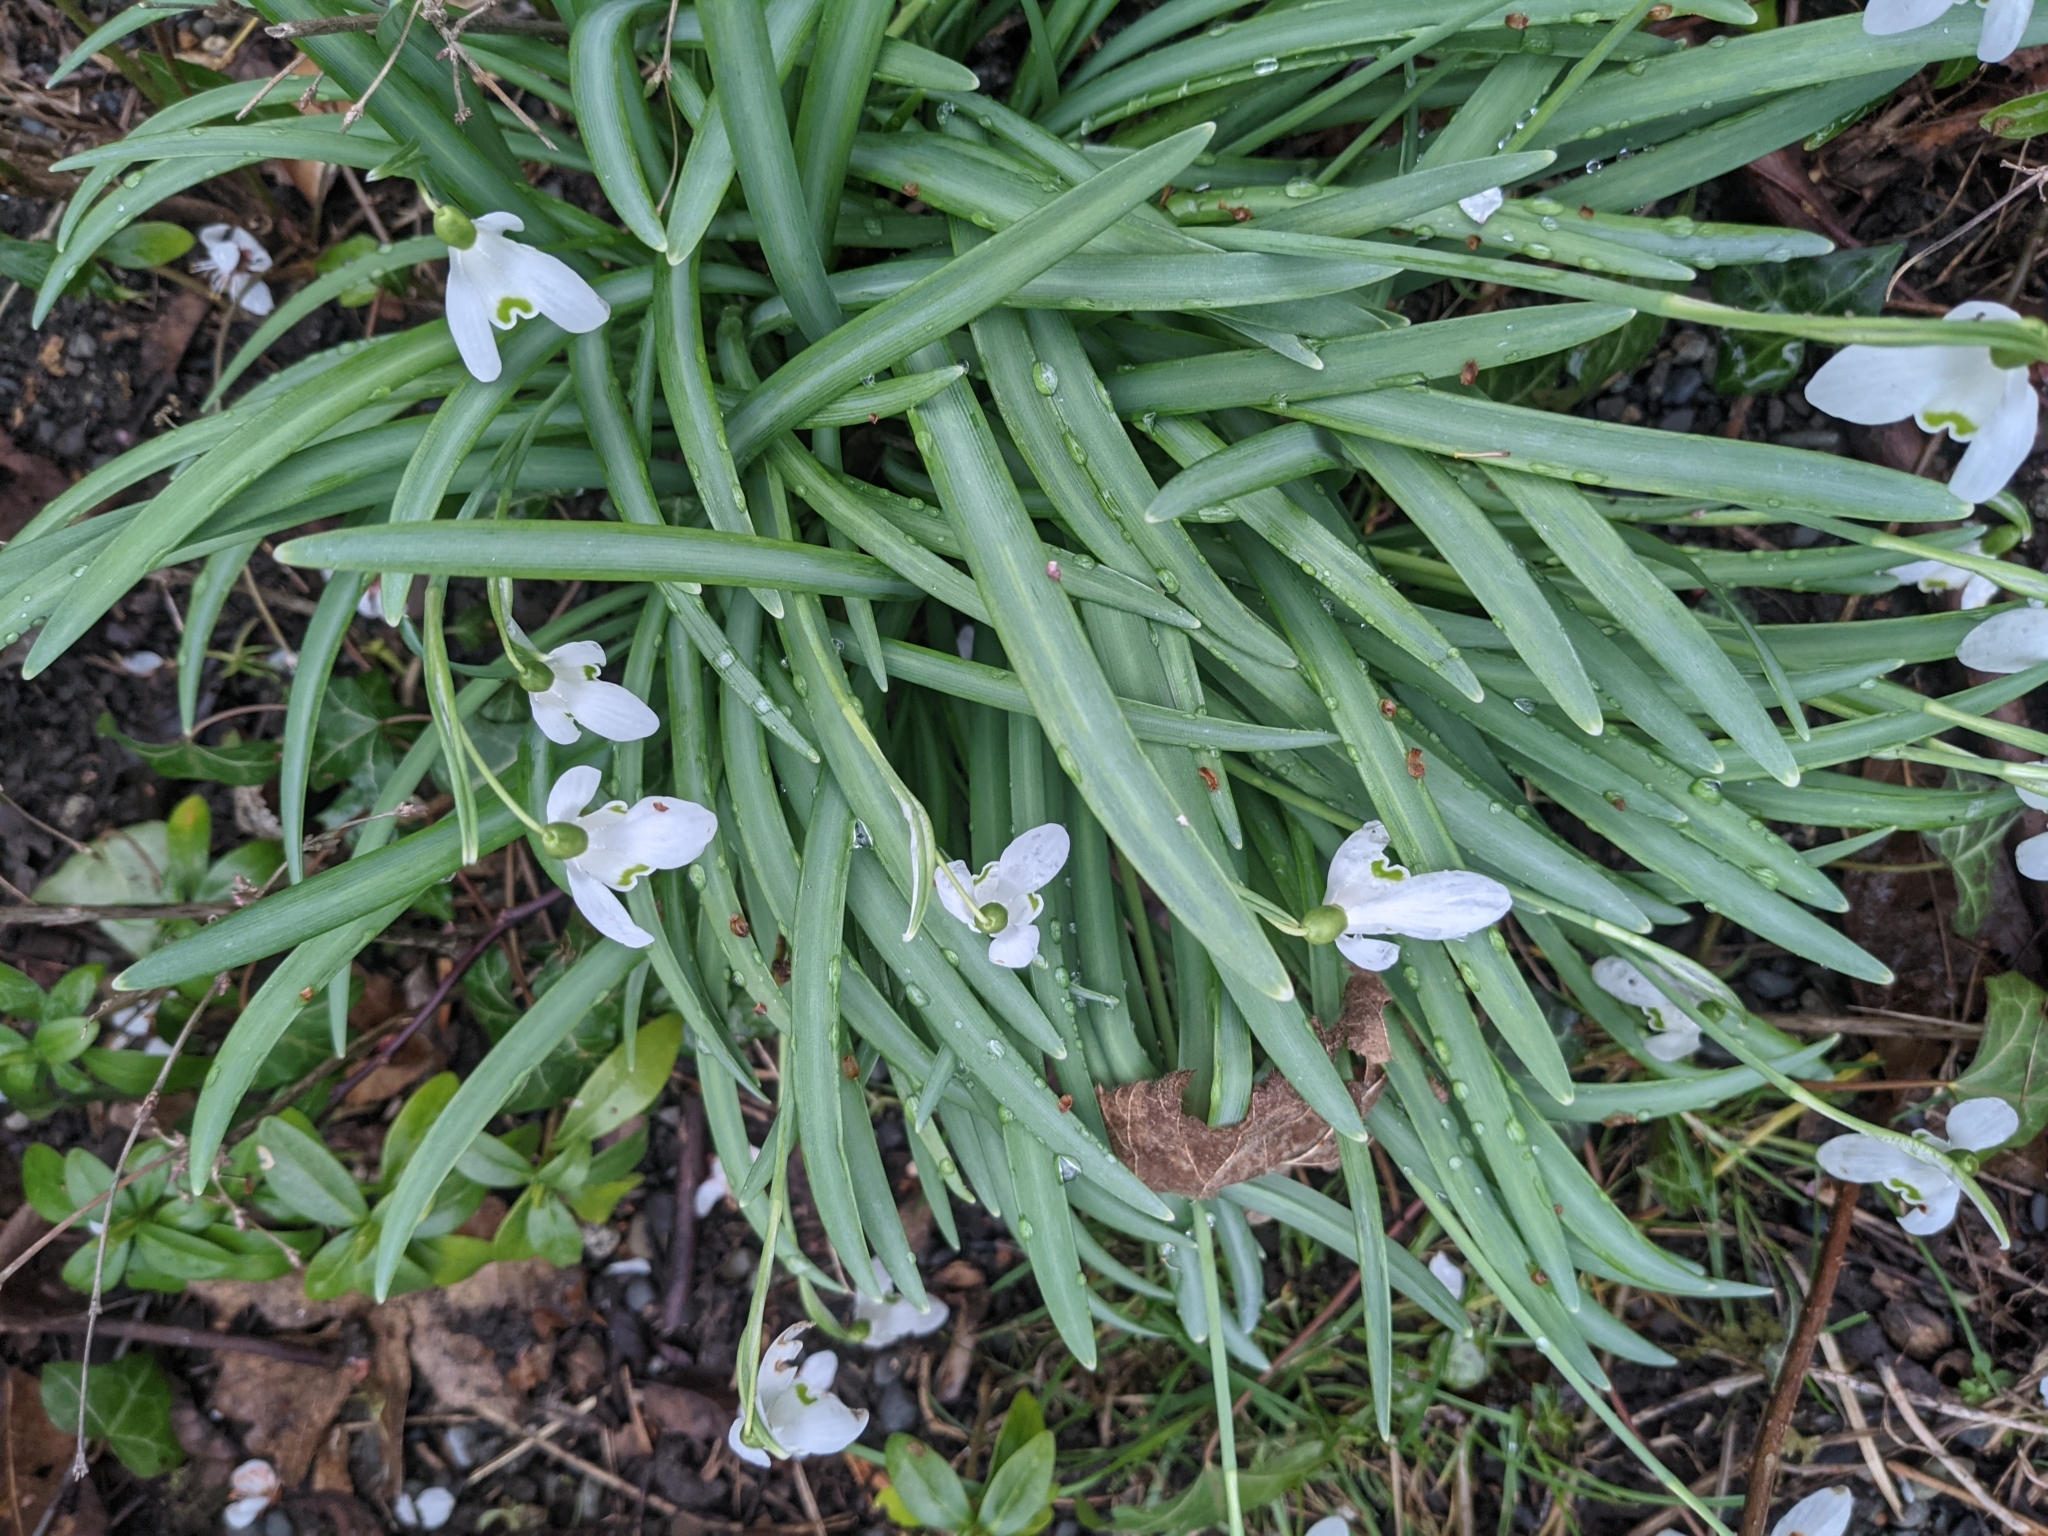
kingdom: Plantae
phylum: Tracheophyta
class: Liliopsida
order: Asparagales
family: Amaryllidaceae
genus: Galanthus
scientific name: Galanthus nivalis
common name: Snowdrop
